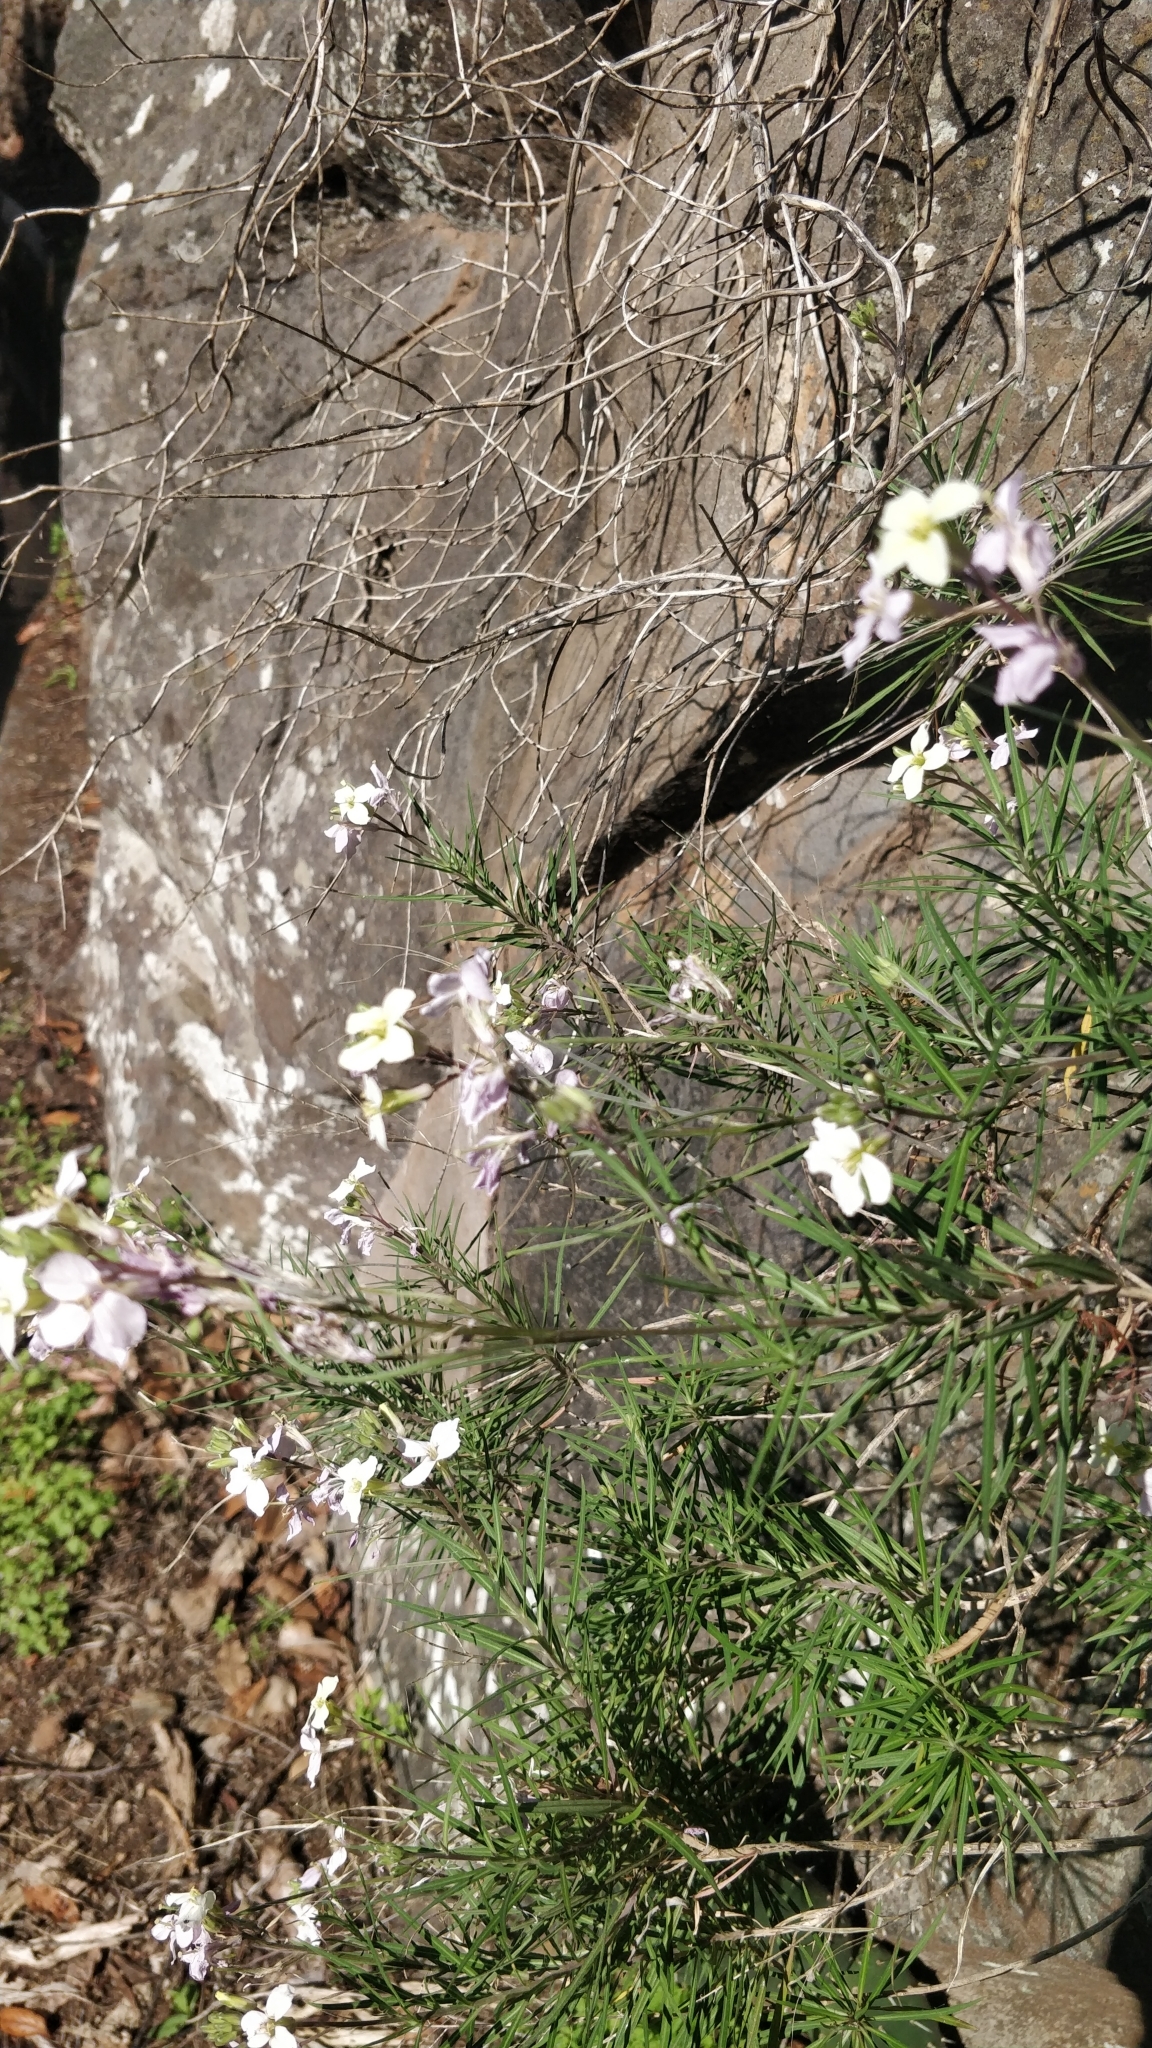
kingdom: Plantae
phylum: Tracheophyta
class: Magnoliopsida
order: Brassicales
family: Brassicaceae
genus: Erysimum
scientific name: Erysimum bicolor
